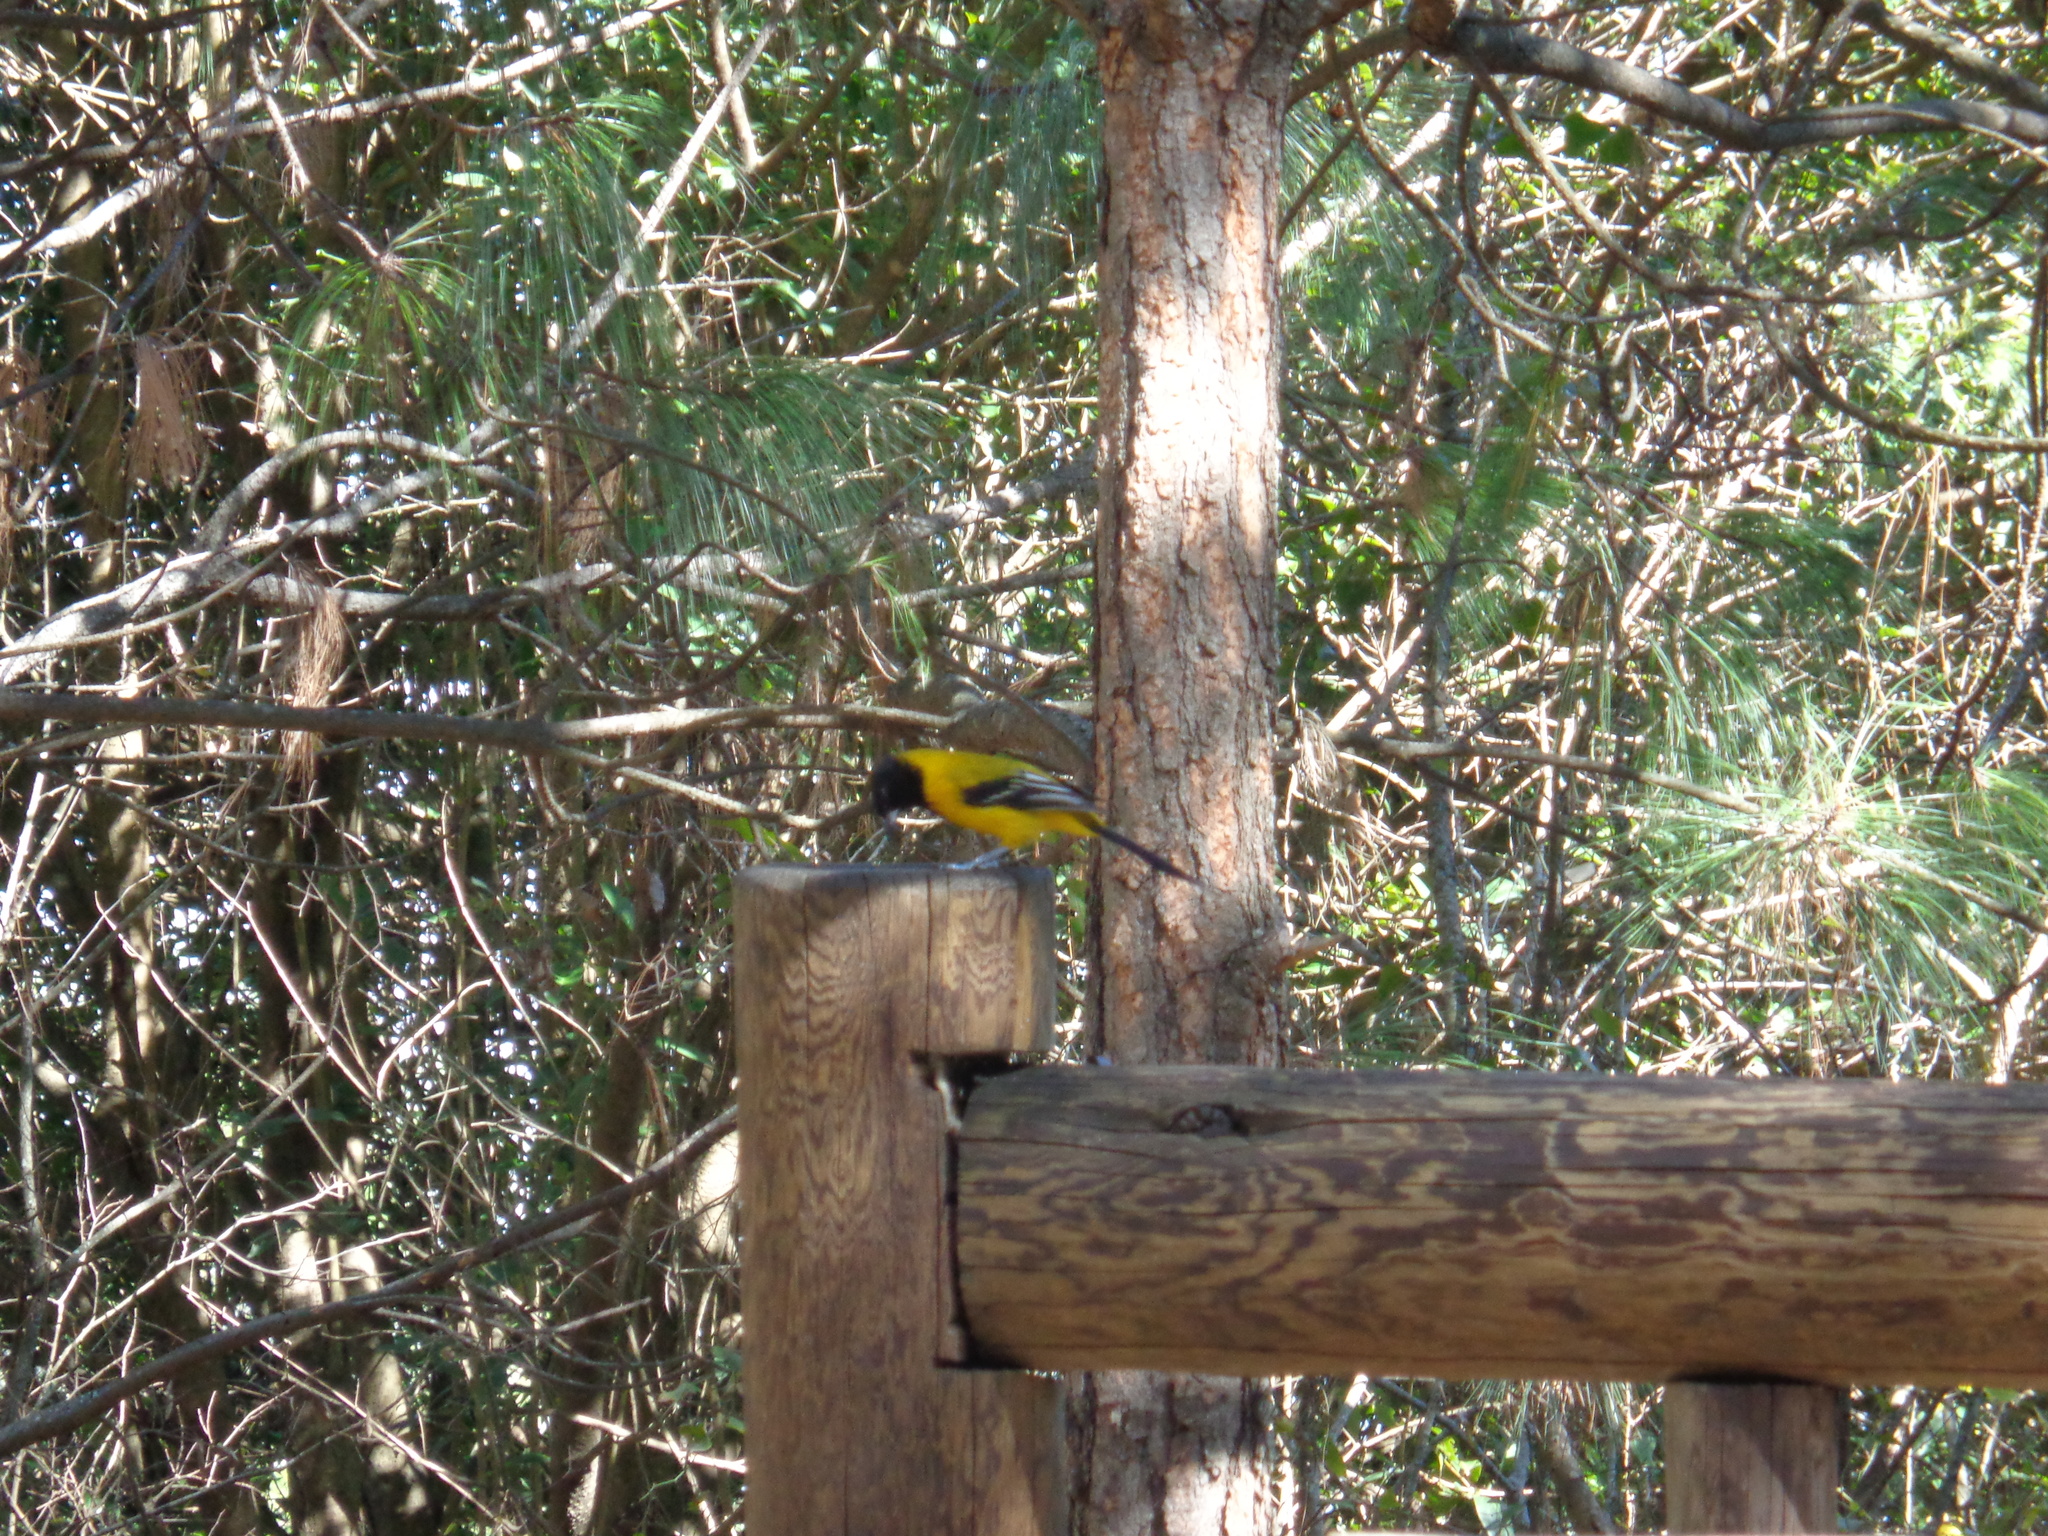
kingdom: Animalia
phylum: Chordata
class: Aves
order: Passeriformes
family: Icteridae
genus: Icterus
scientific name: Icterus graduacauda
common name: Audubon's oriole
